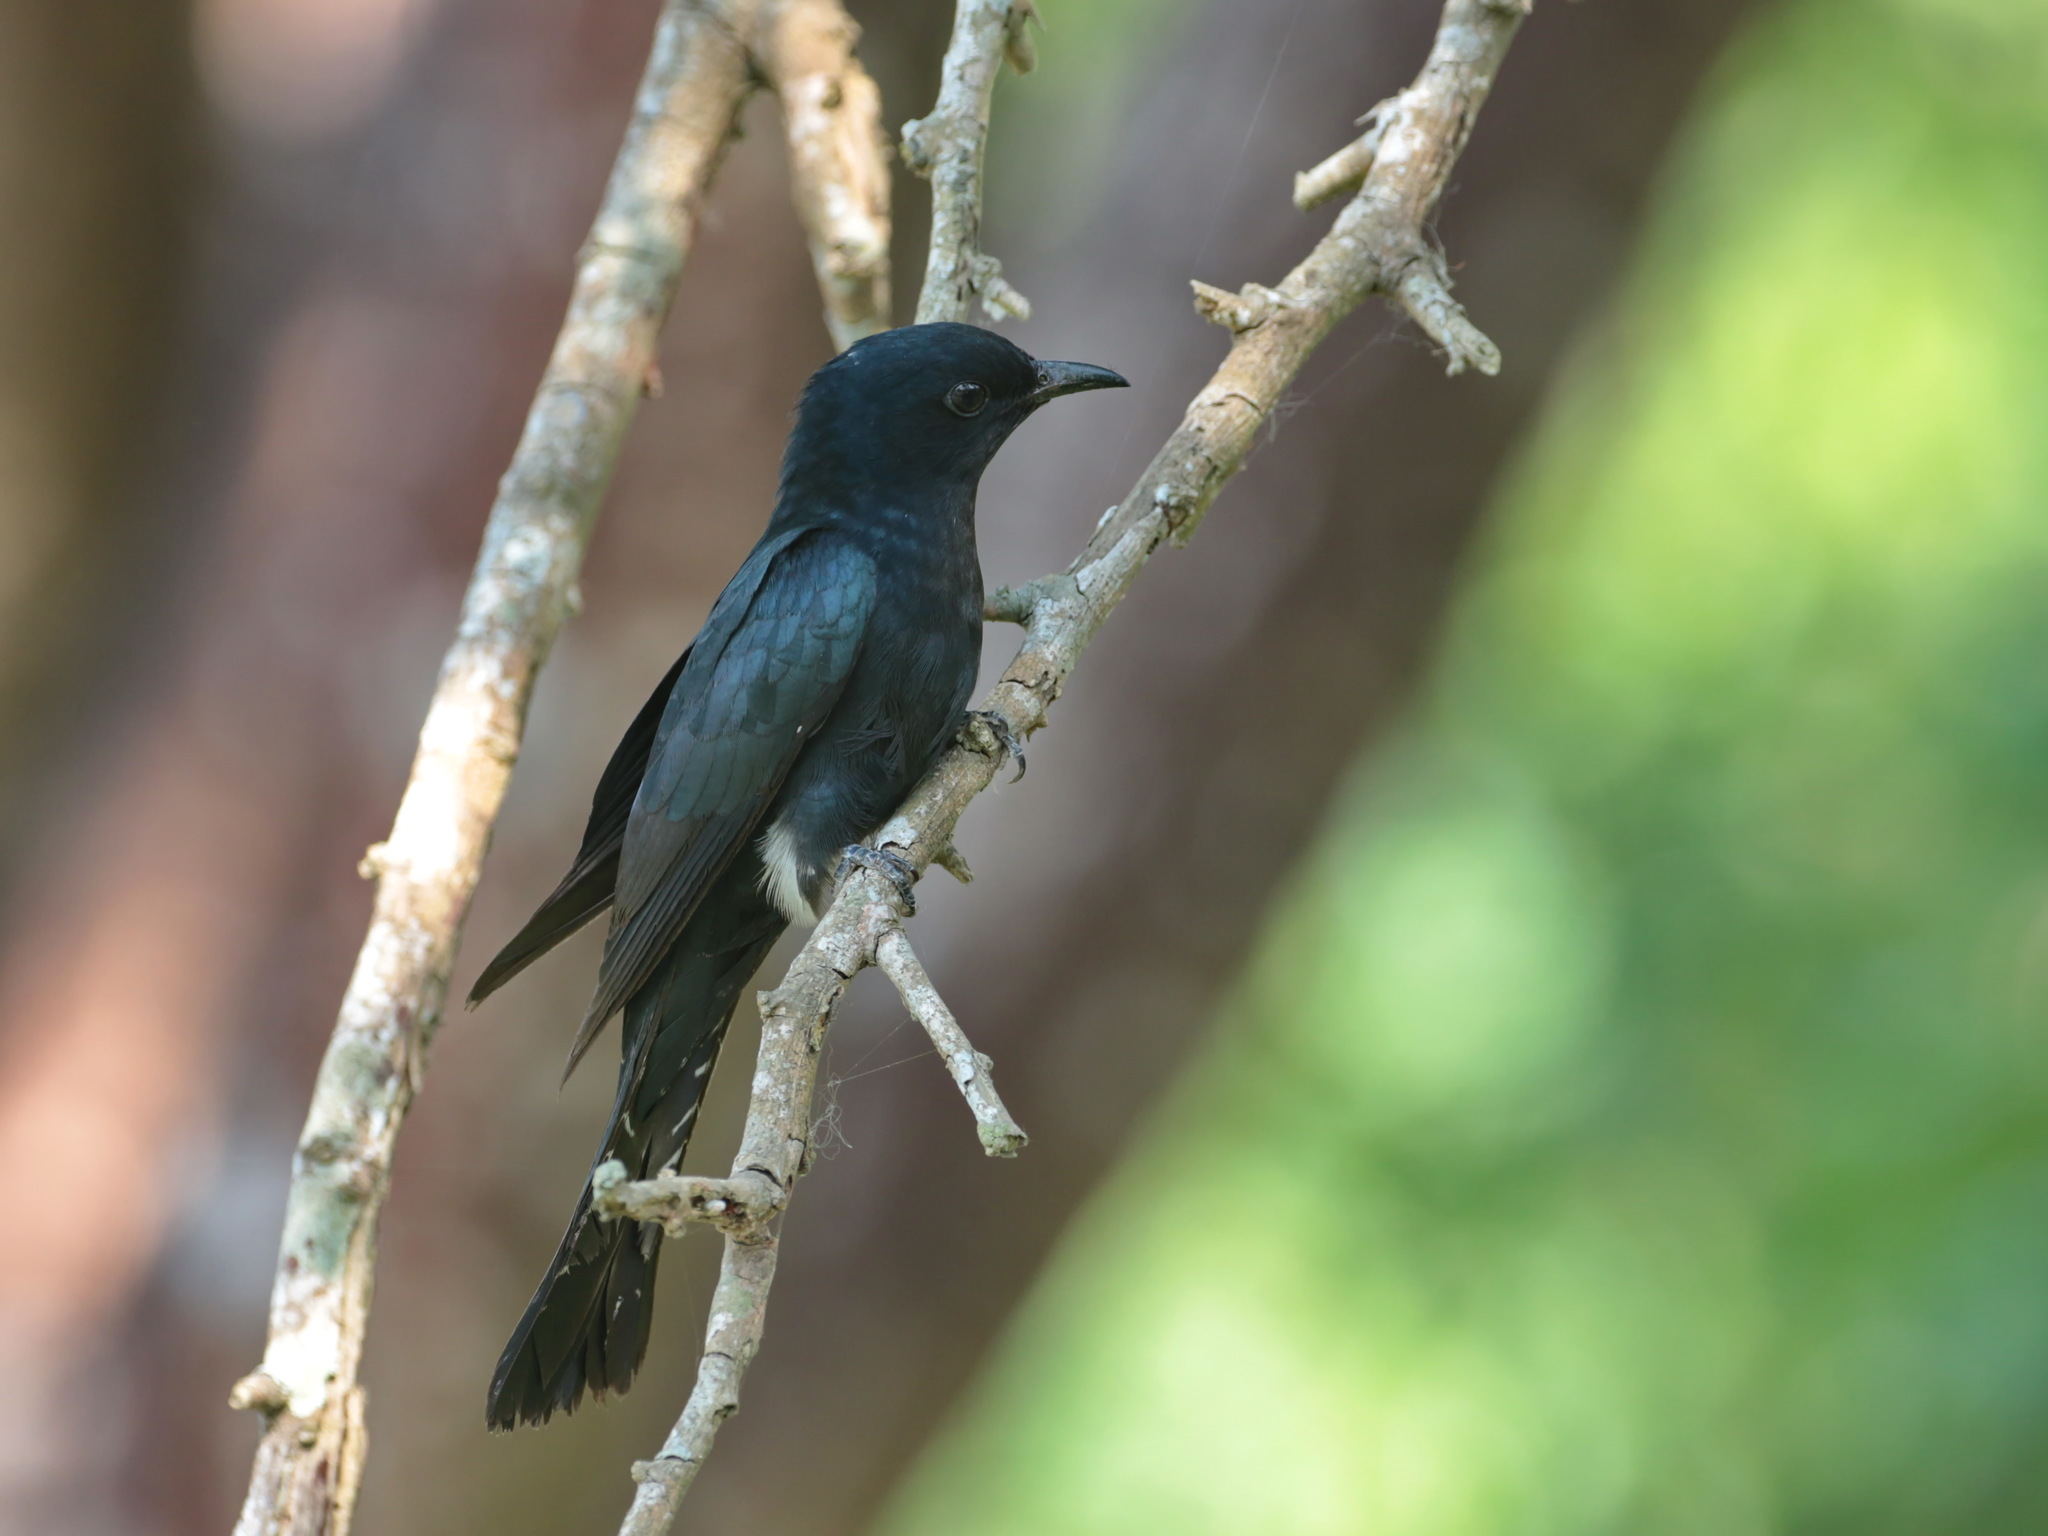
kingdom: Animalia
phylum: Chordata
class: Aves
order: Cuculiformes
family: Cuculidae
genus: Surniculus
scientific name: Surniculus lugubris
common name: Square-tailed drongo-cuckoo
